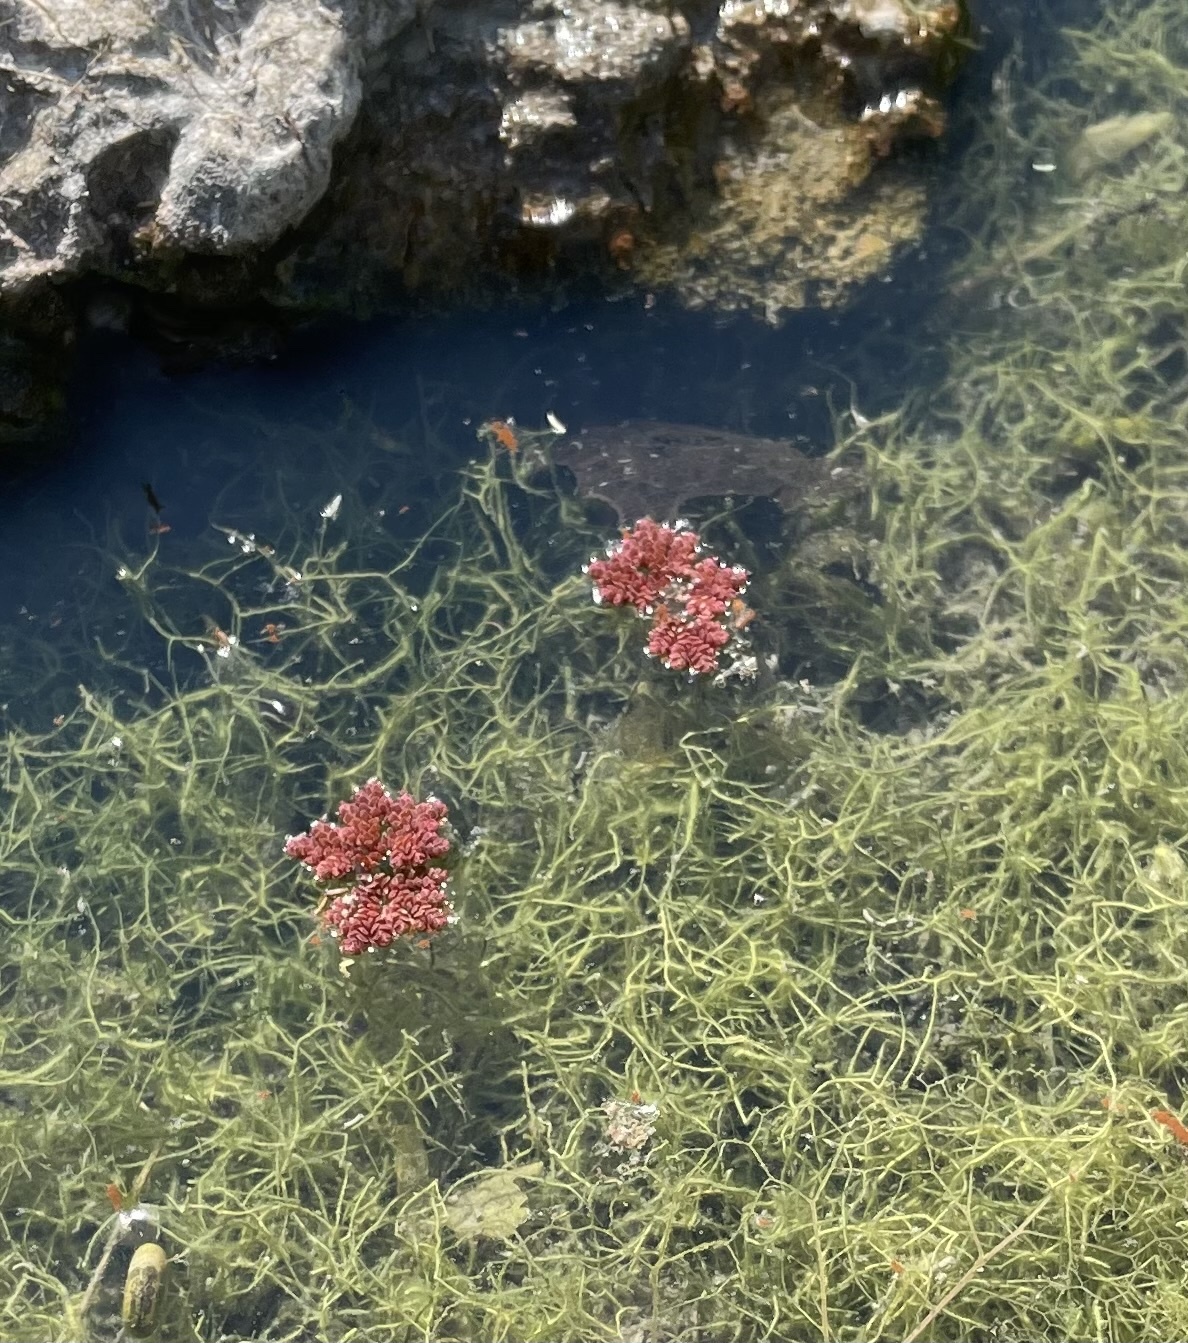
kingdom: Plantae
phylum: Tracheophyta
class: Polypodiopsida
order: Salviniales
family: Salviniaceae
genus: Azolla
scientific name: Azolla caroliniana
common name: Carolina mosquitofern
